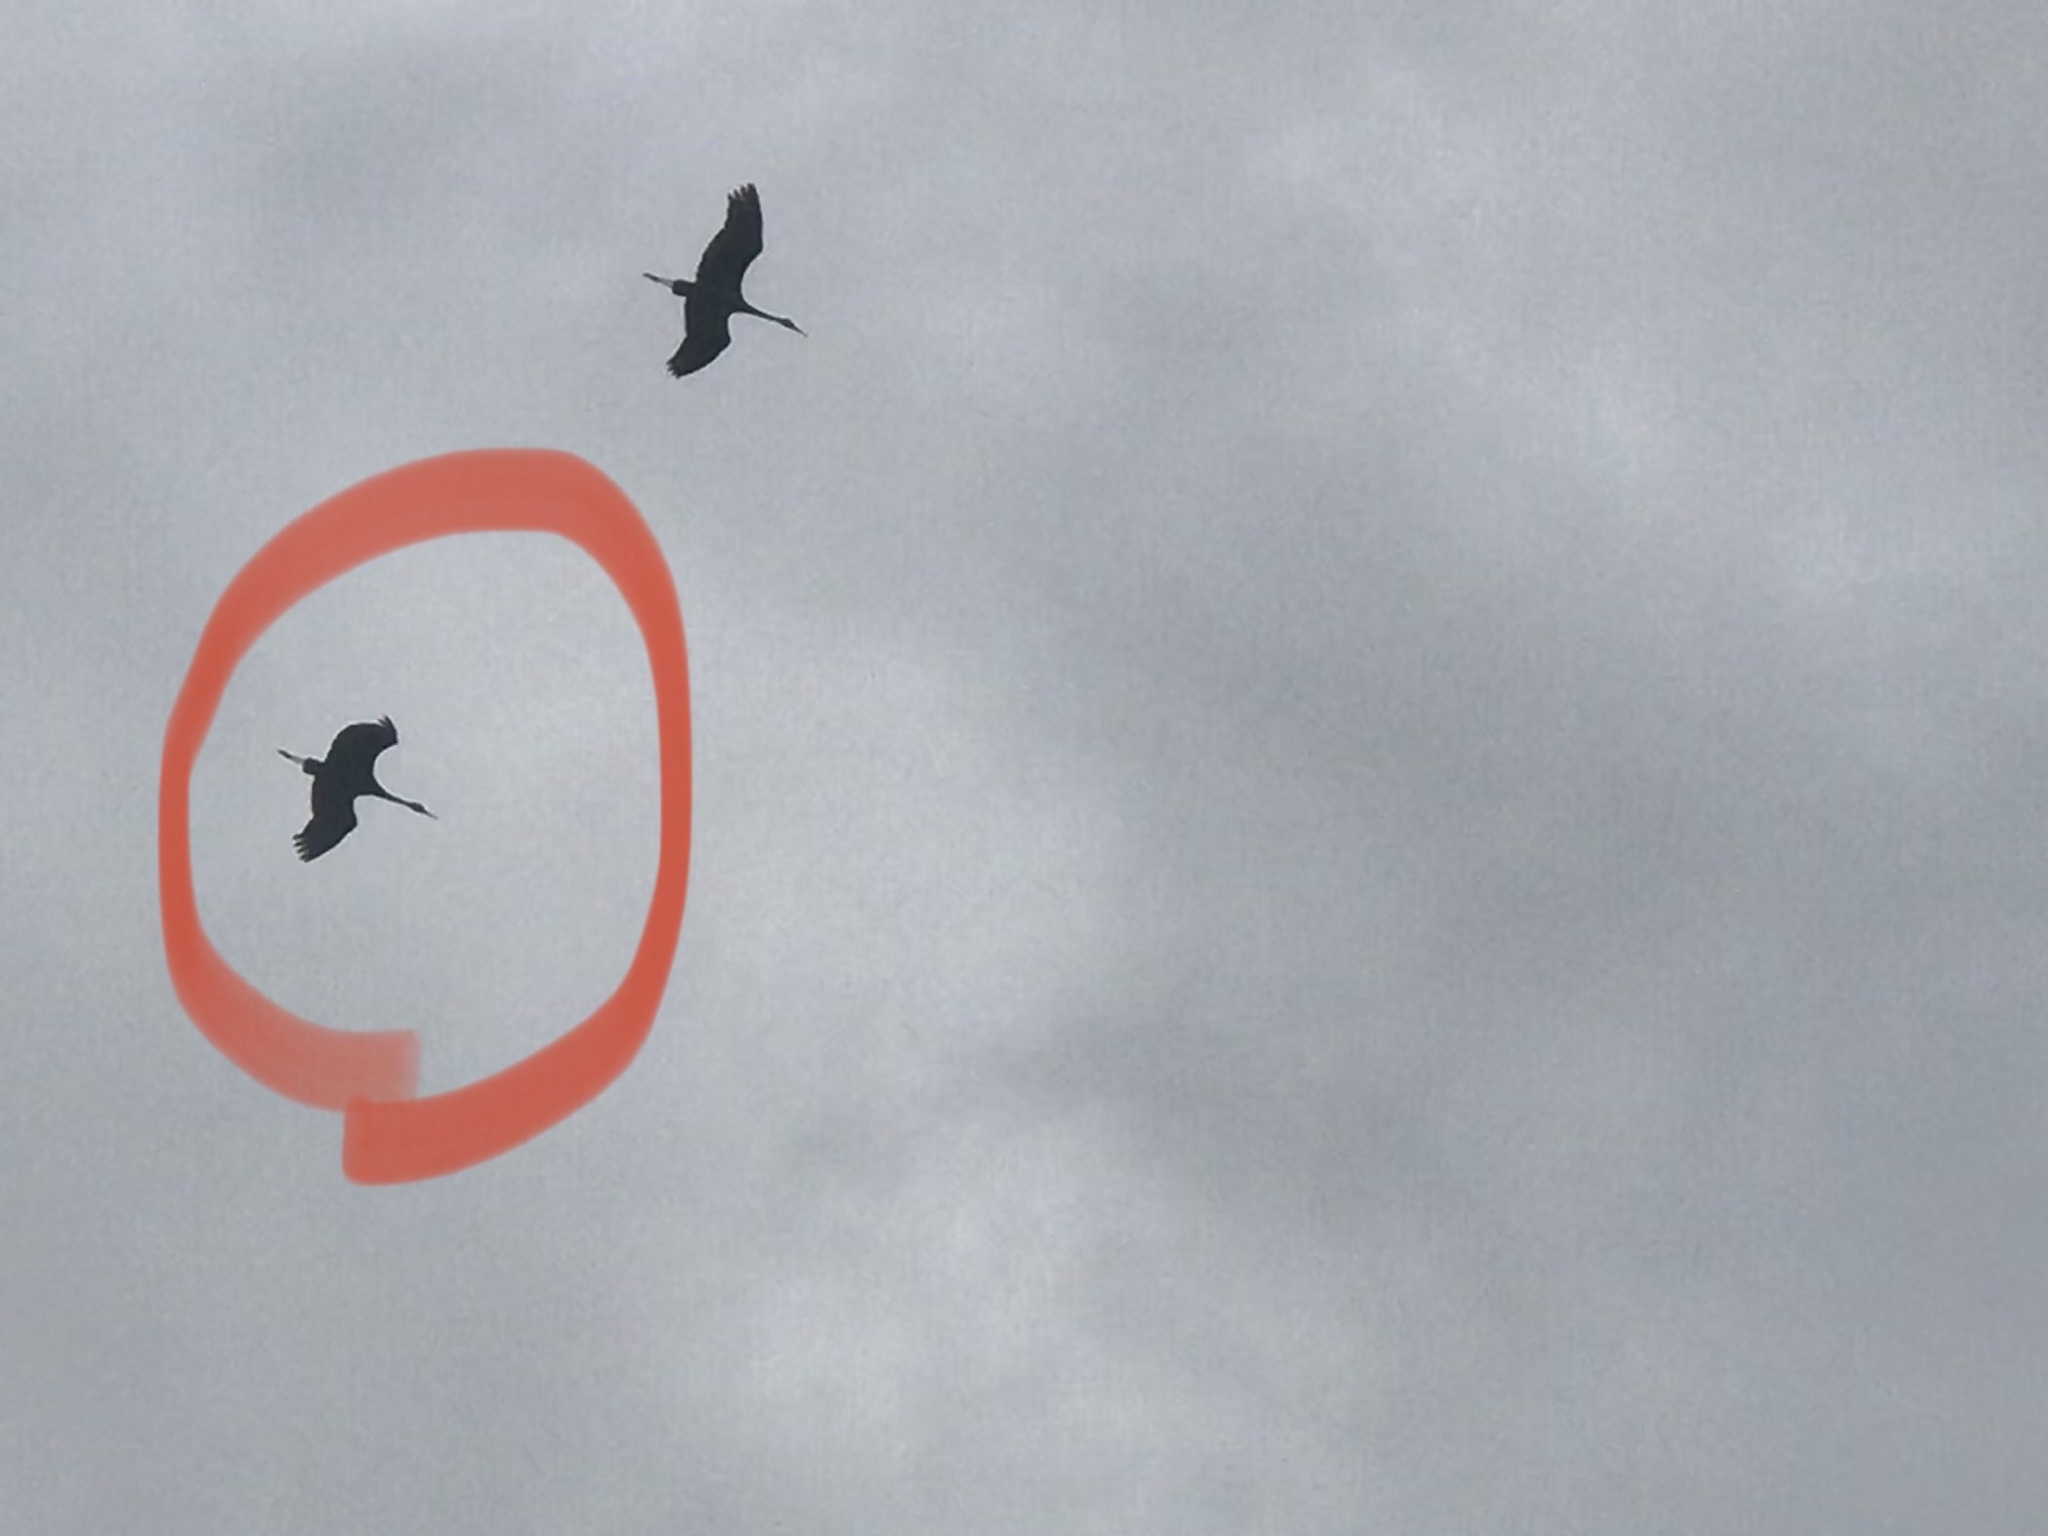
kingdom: Animalia
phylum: Chordata
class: Aves
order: Gruiformes
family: Gruidae
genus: Grus
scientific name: Grus canadensis
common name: Sandhill crane
